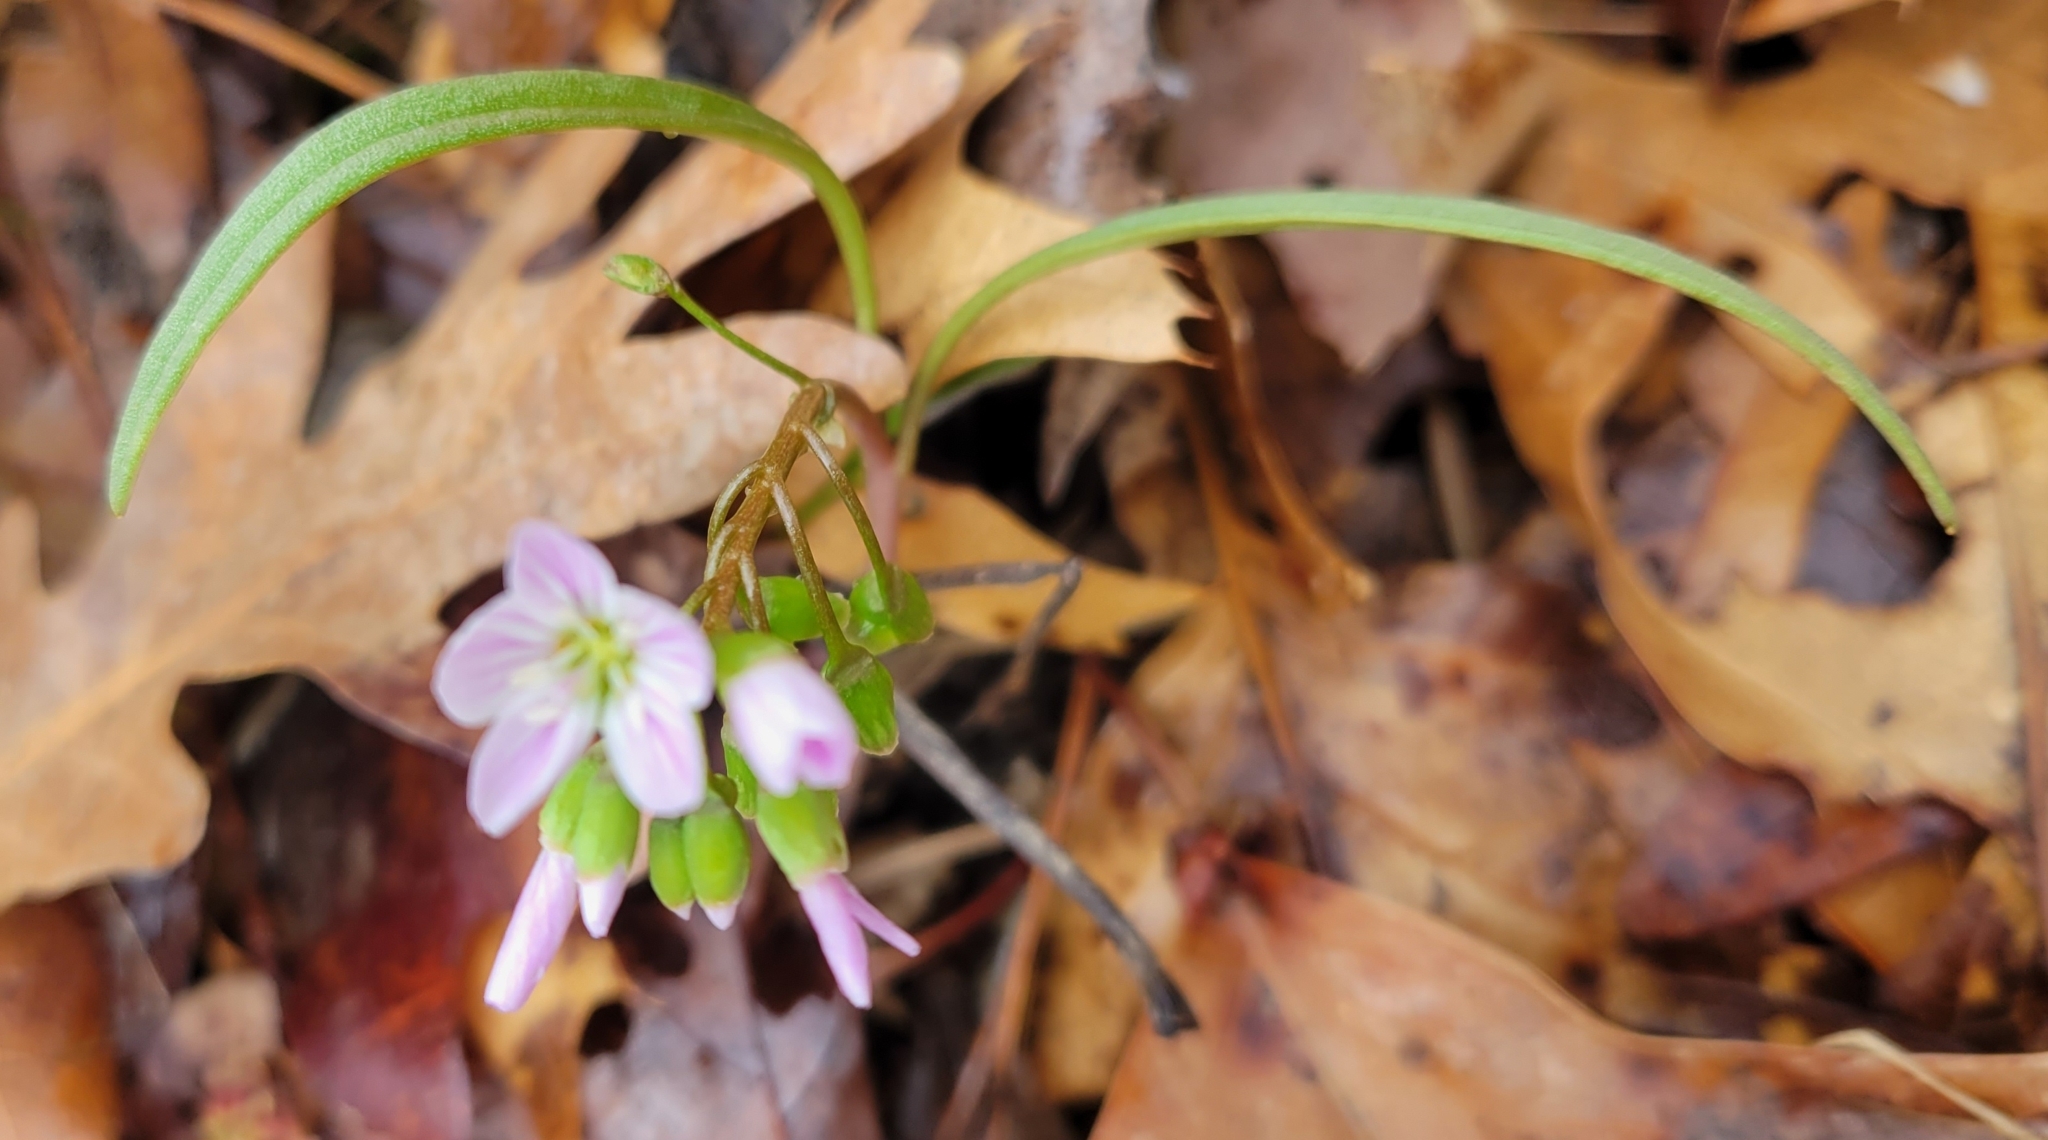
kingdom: Plantae
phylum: Tracheophyta
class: Magnoliopsida
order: Caryophyllales
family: Montiaceae
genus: Claytonia
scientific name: Claytonia virginica
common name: Virginia springbeauty
